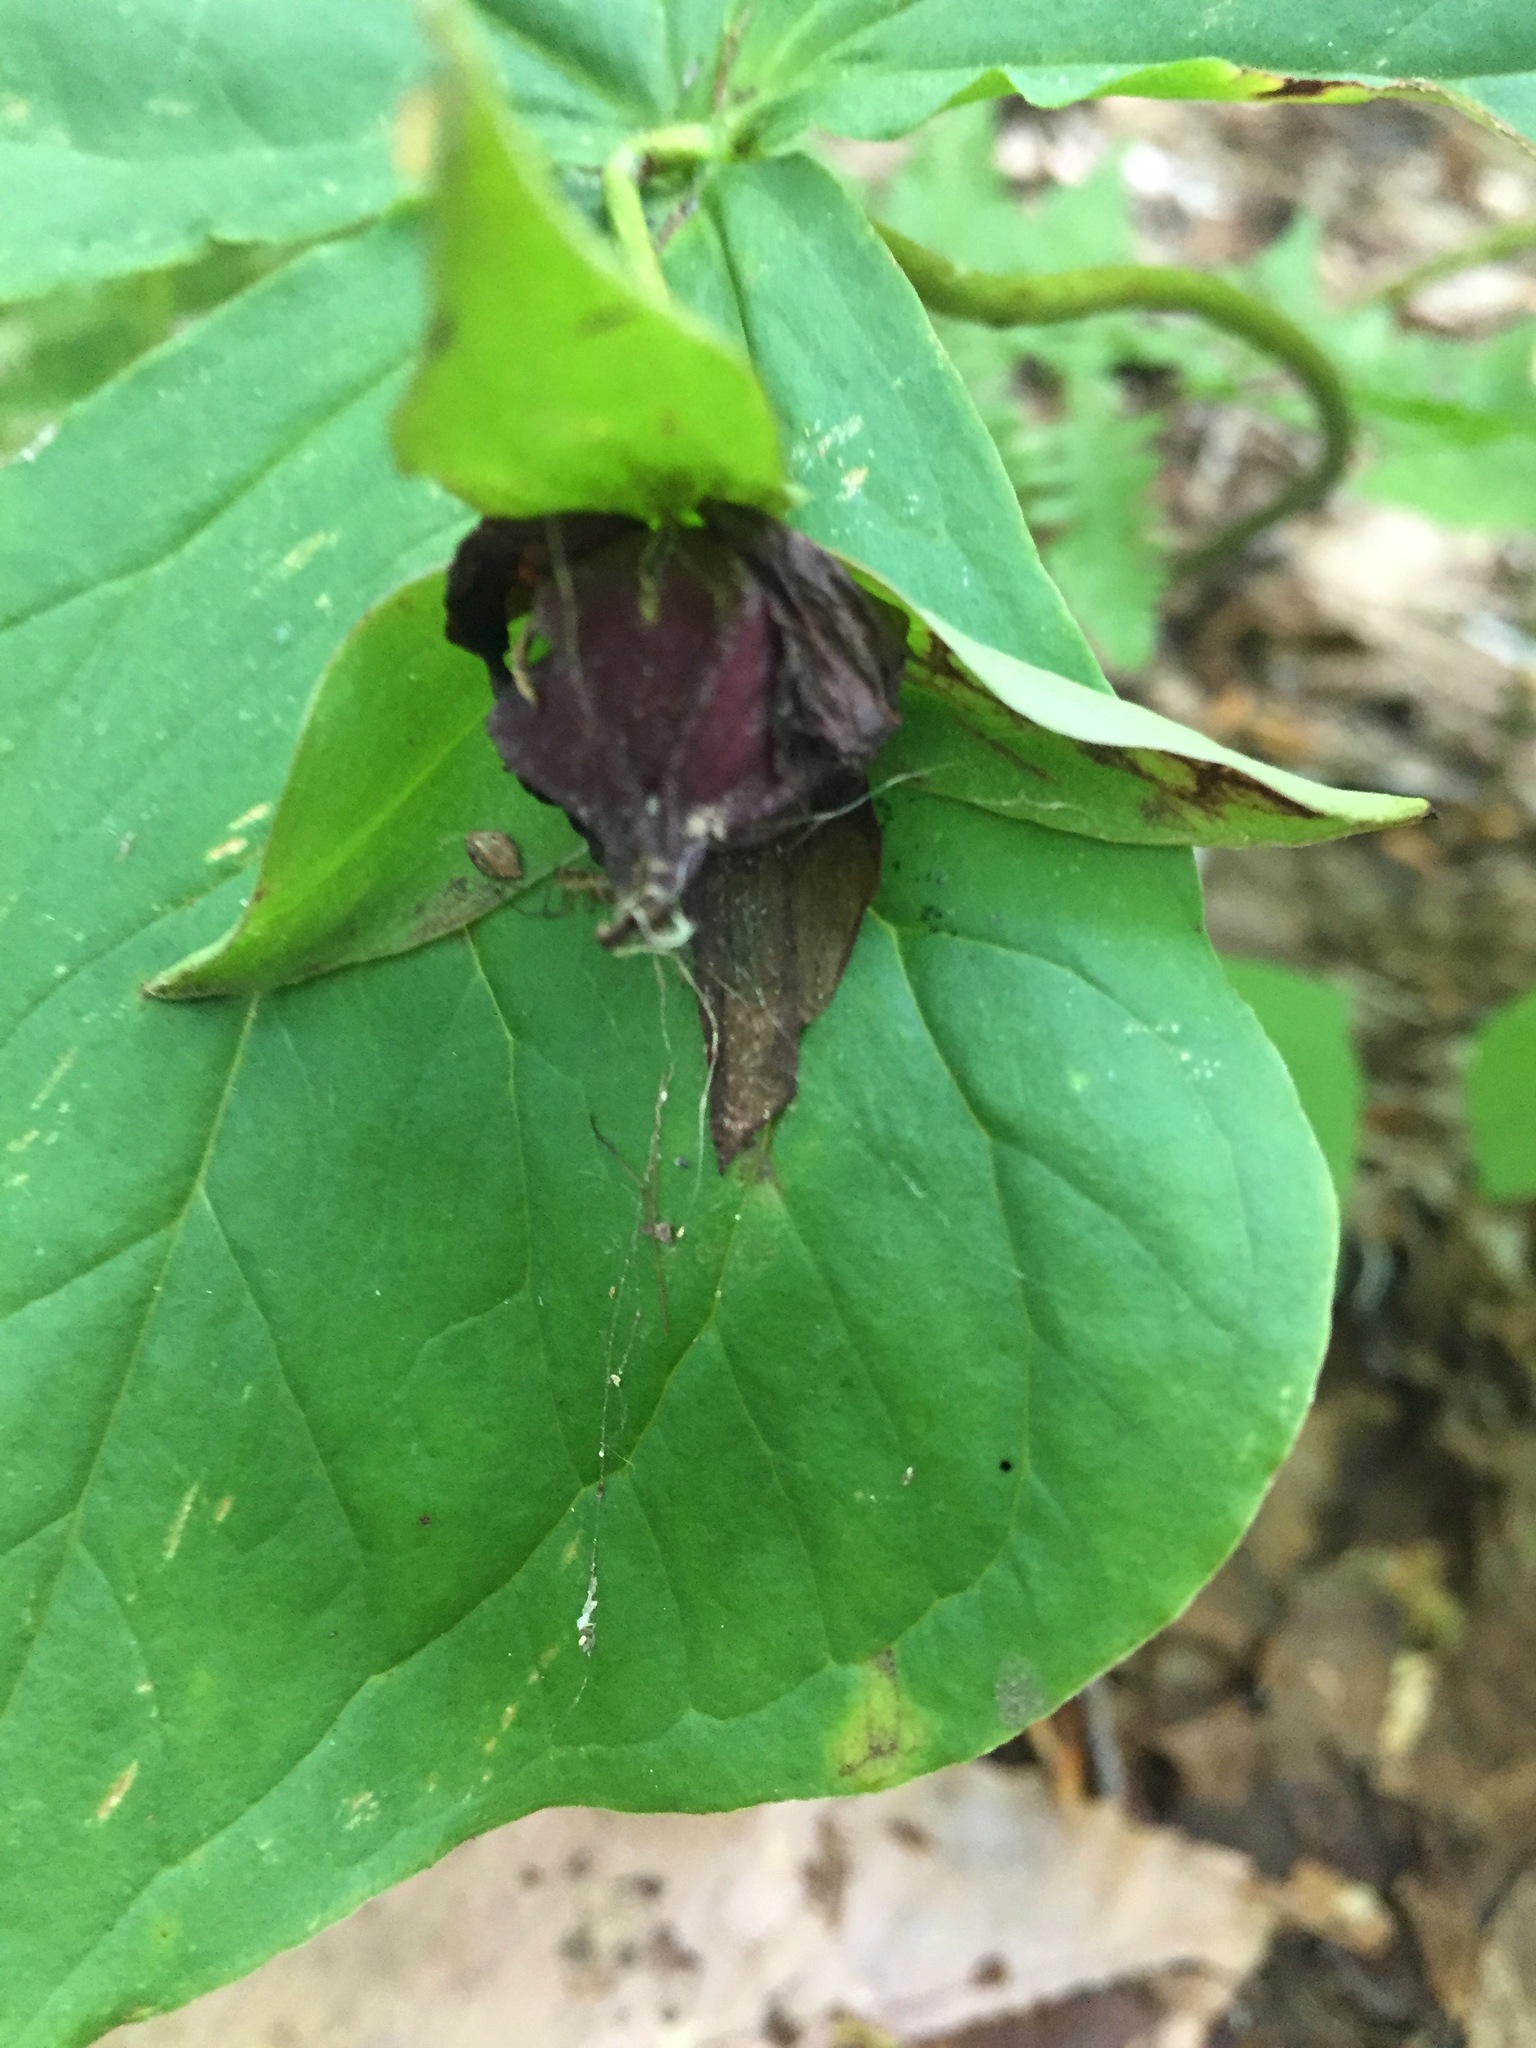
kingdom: Plantae
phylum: Tracheophyta
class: Liliopsida
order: Liliales
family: Melanthiaceae
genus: Trillium
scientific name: Trillium erectum
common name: Purple trillium
